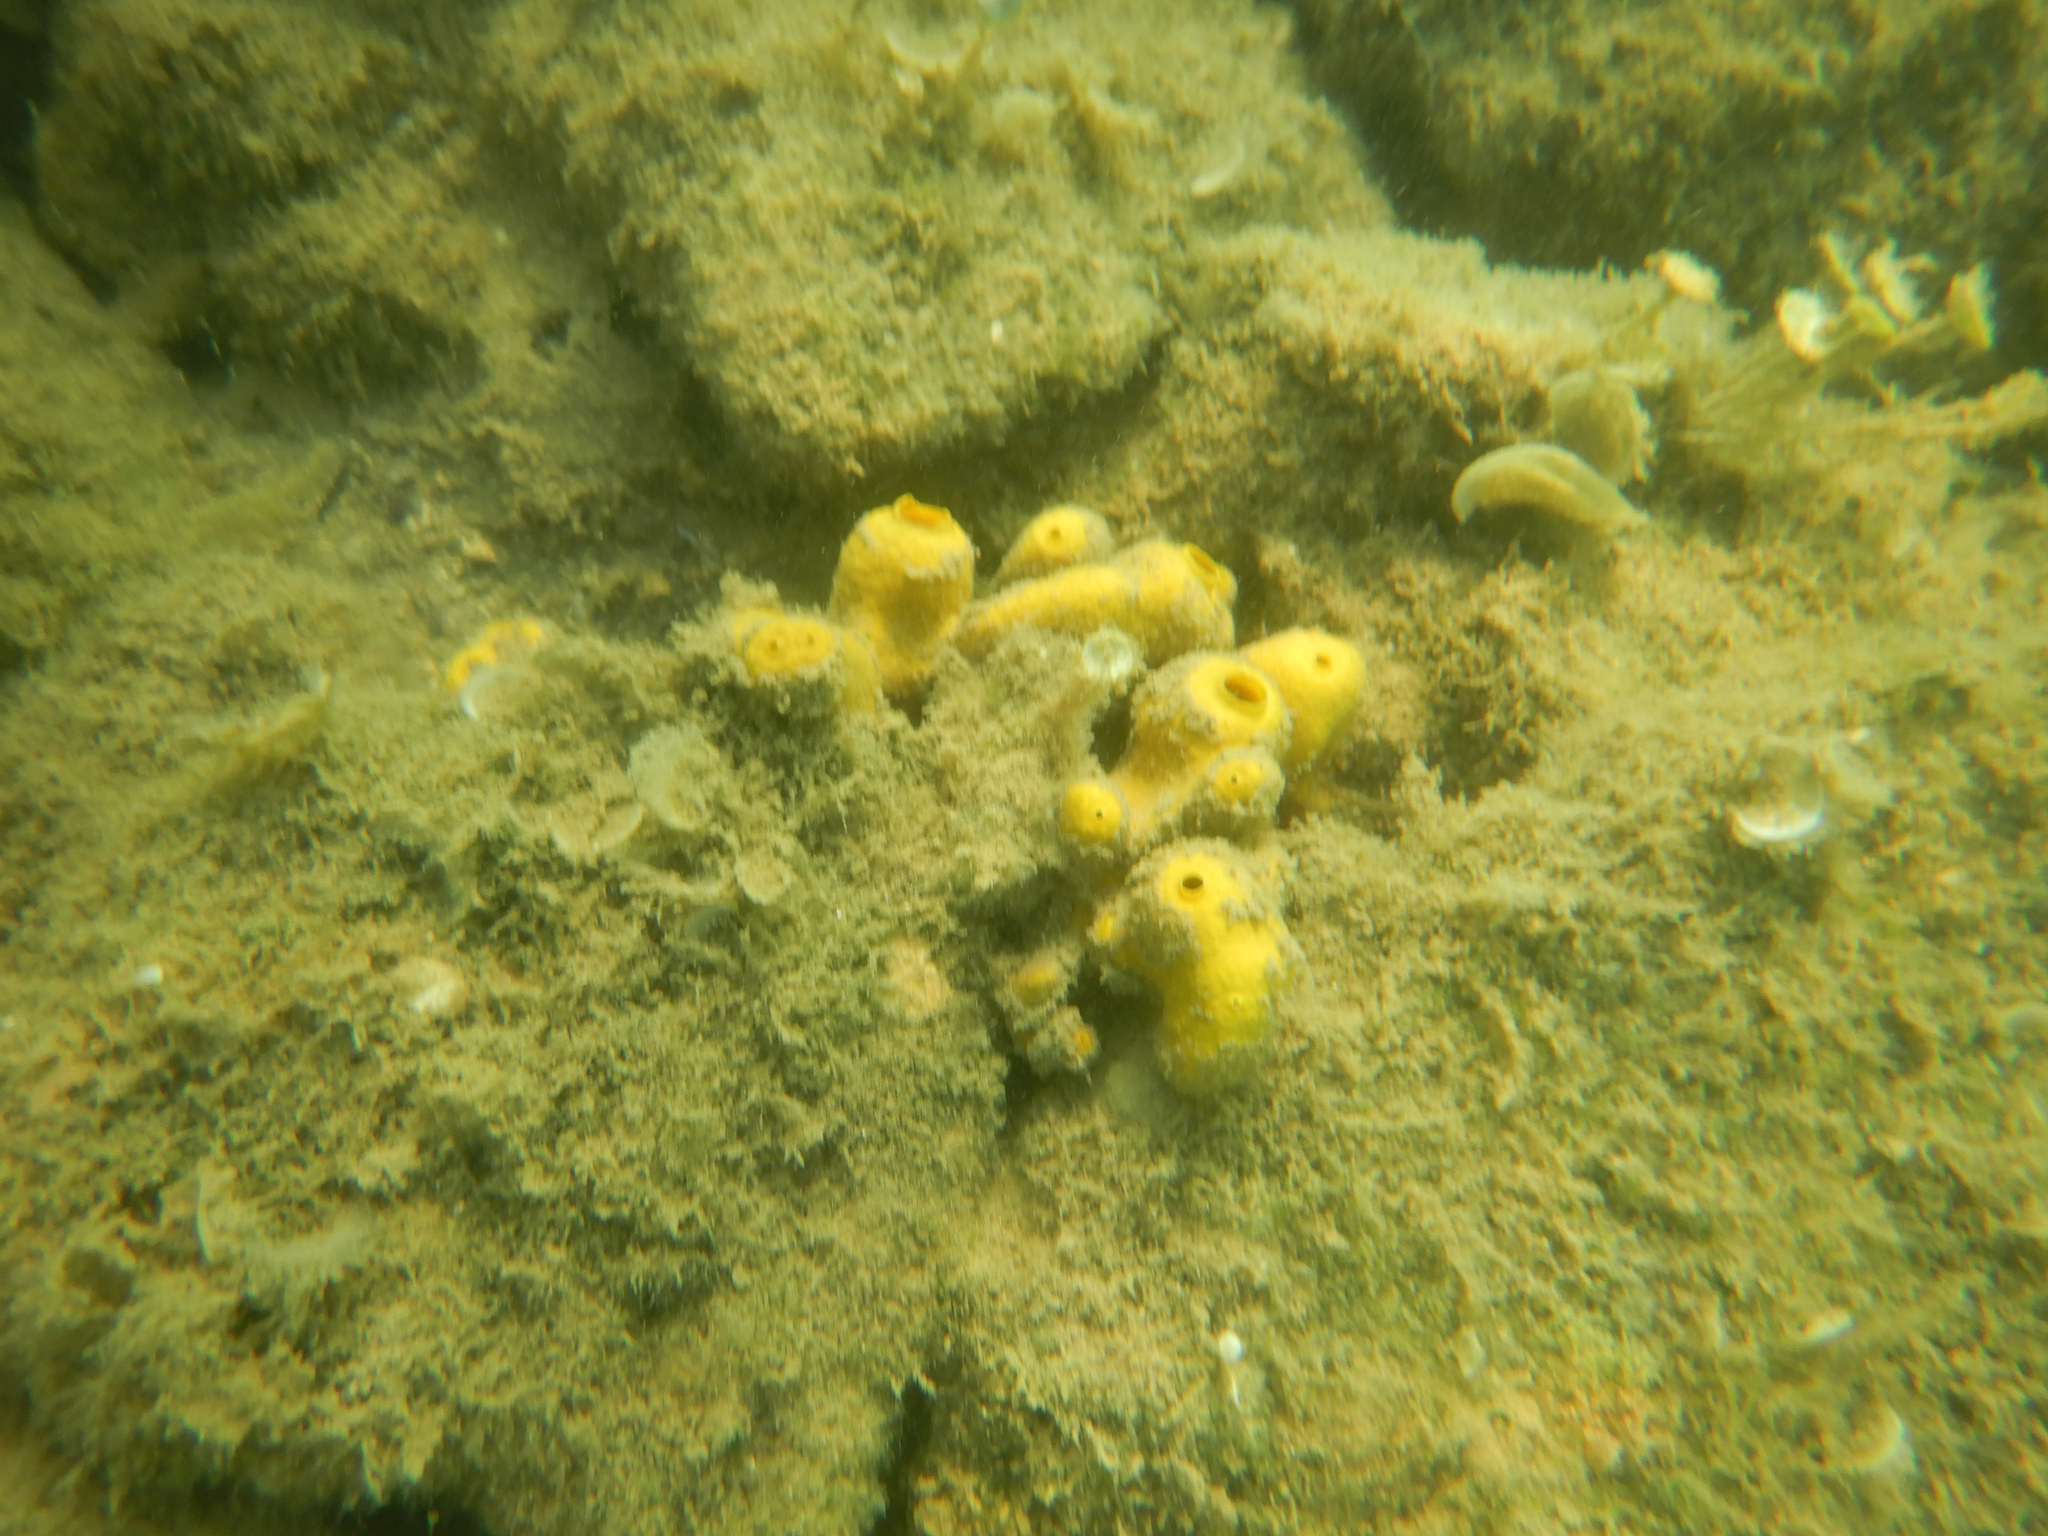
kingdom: Animalia
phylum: Porifera
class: Demospongiae
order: Verongiida
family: Aplysinidae
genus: Aplysina
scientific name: Aplysina aerophoba
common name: Aureate sponge
